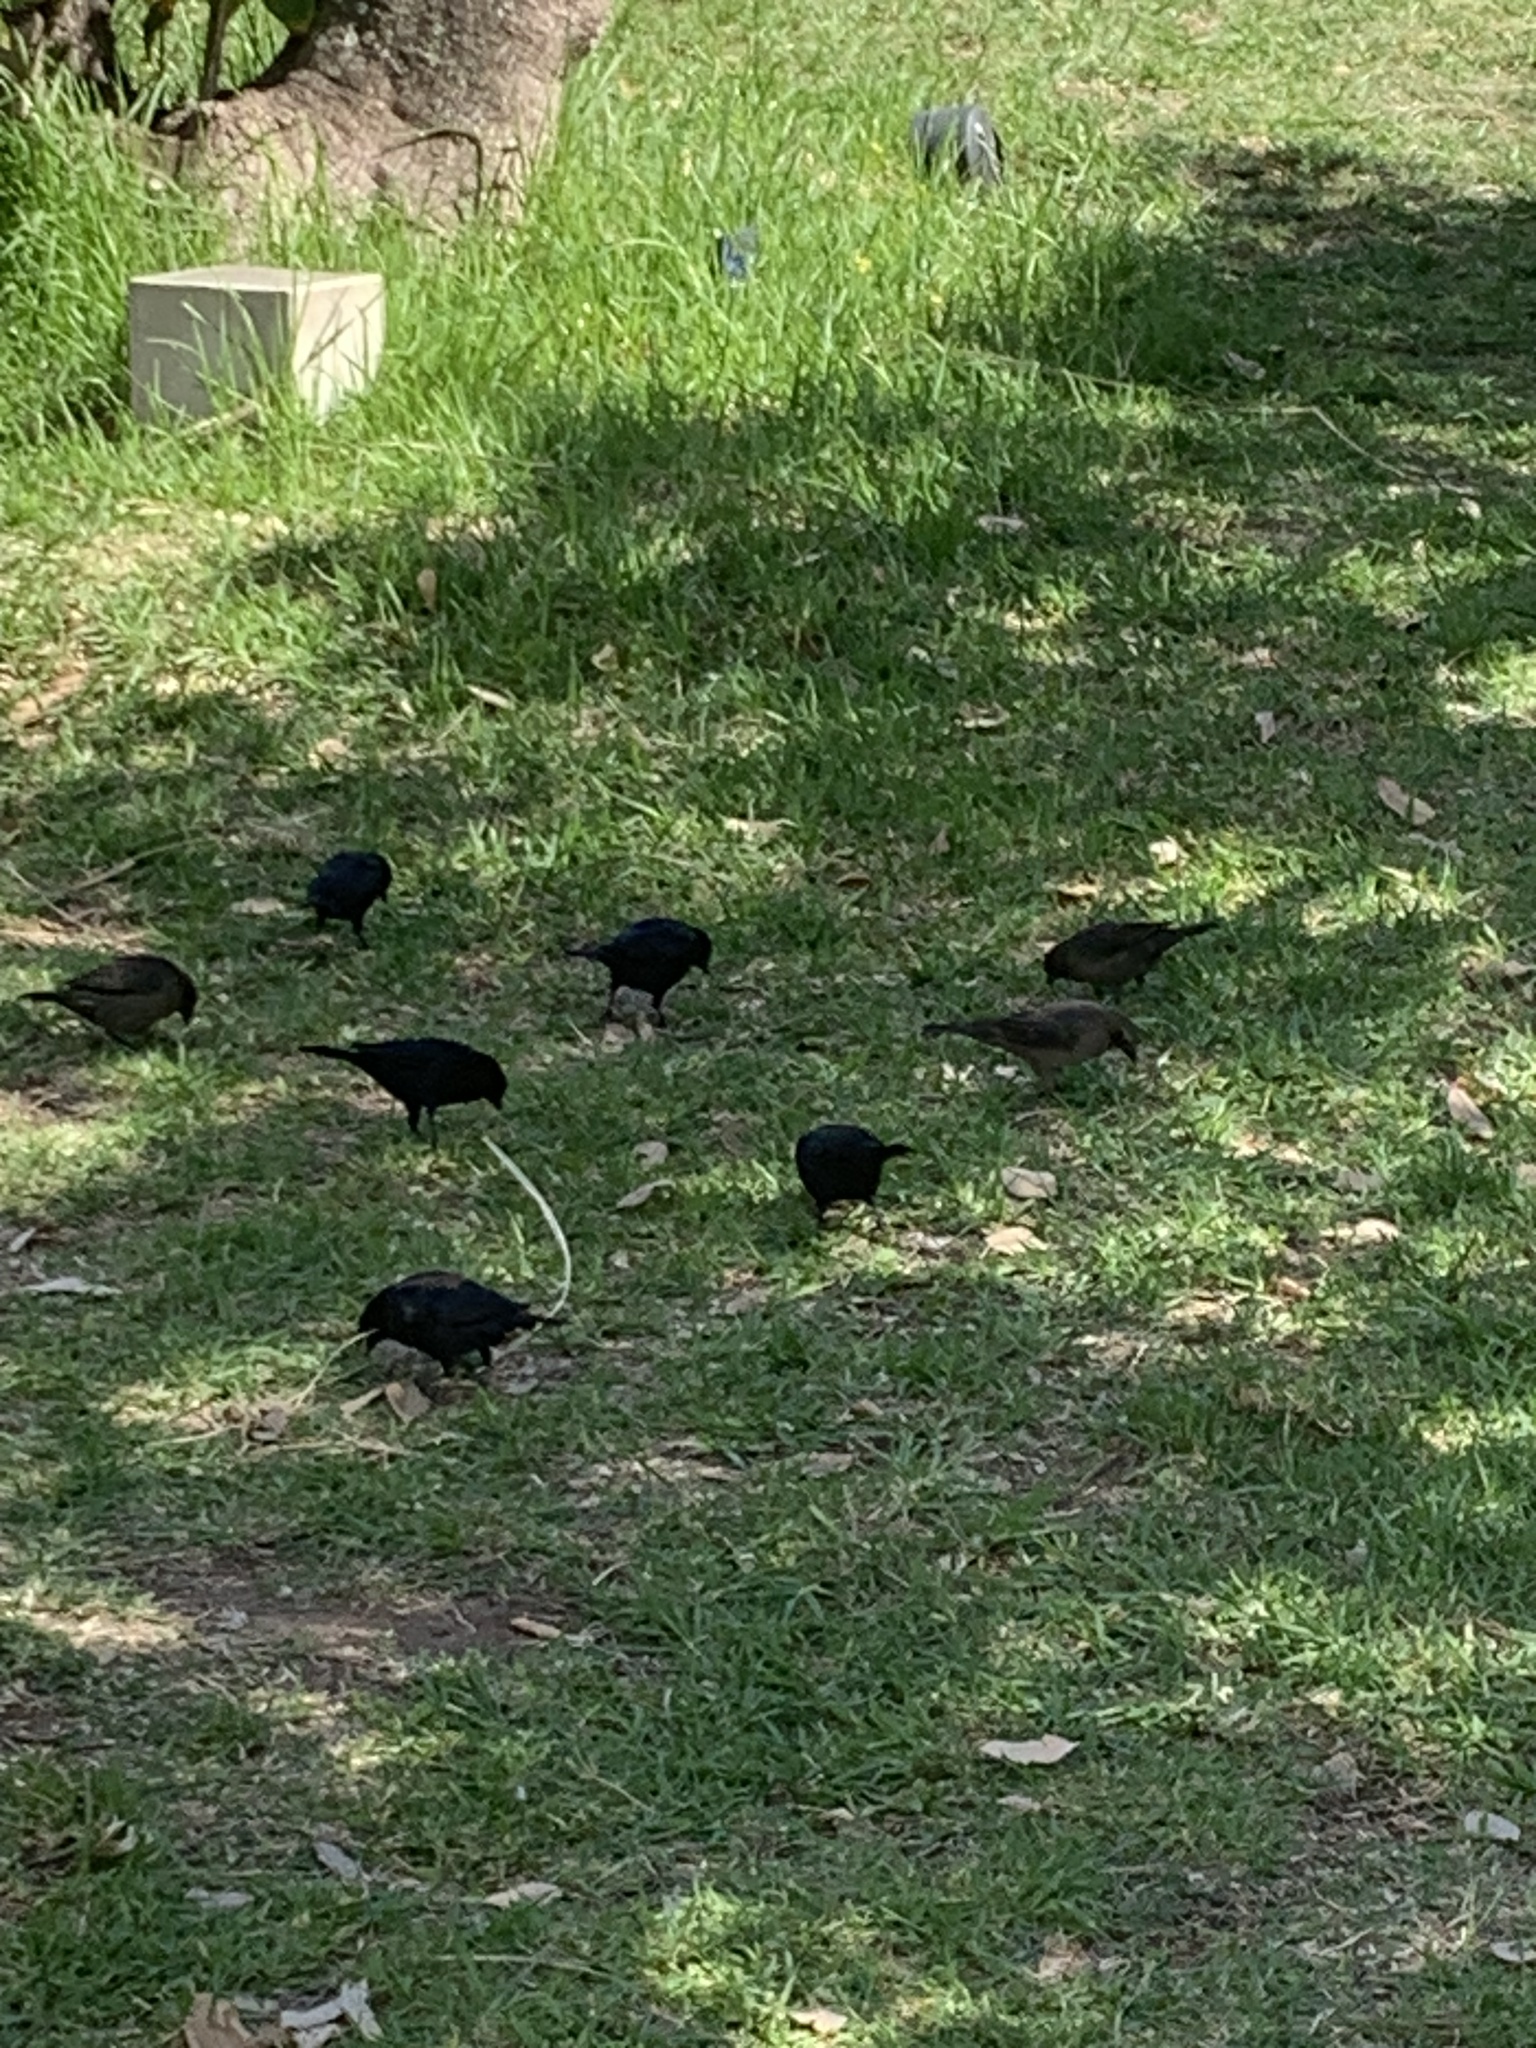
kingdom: Animalia
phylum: Chordata
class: Aves
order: Passeriformes
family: Icteridae
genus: Molothrus
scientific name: Molothrus bonariensis
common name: Shiny cowbird
